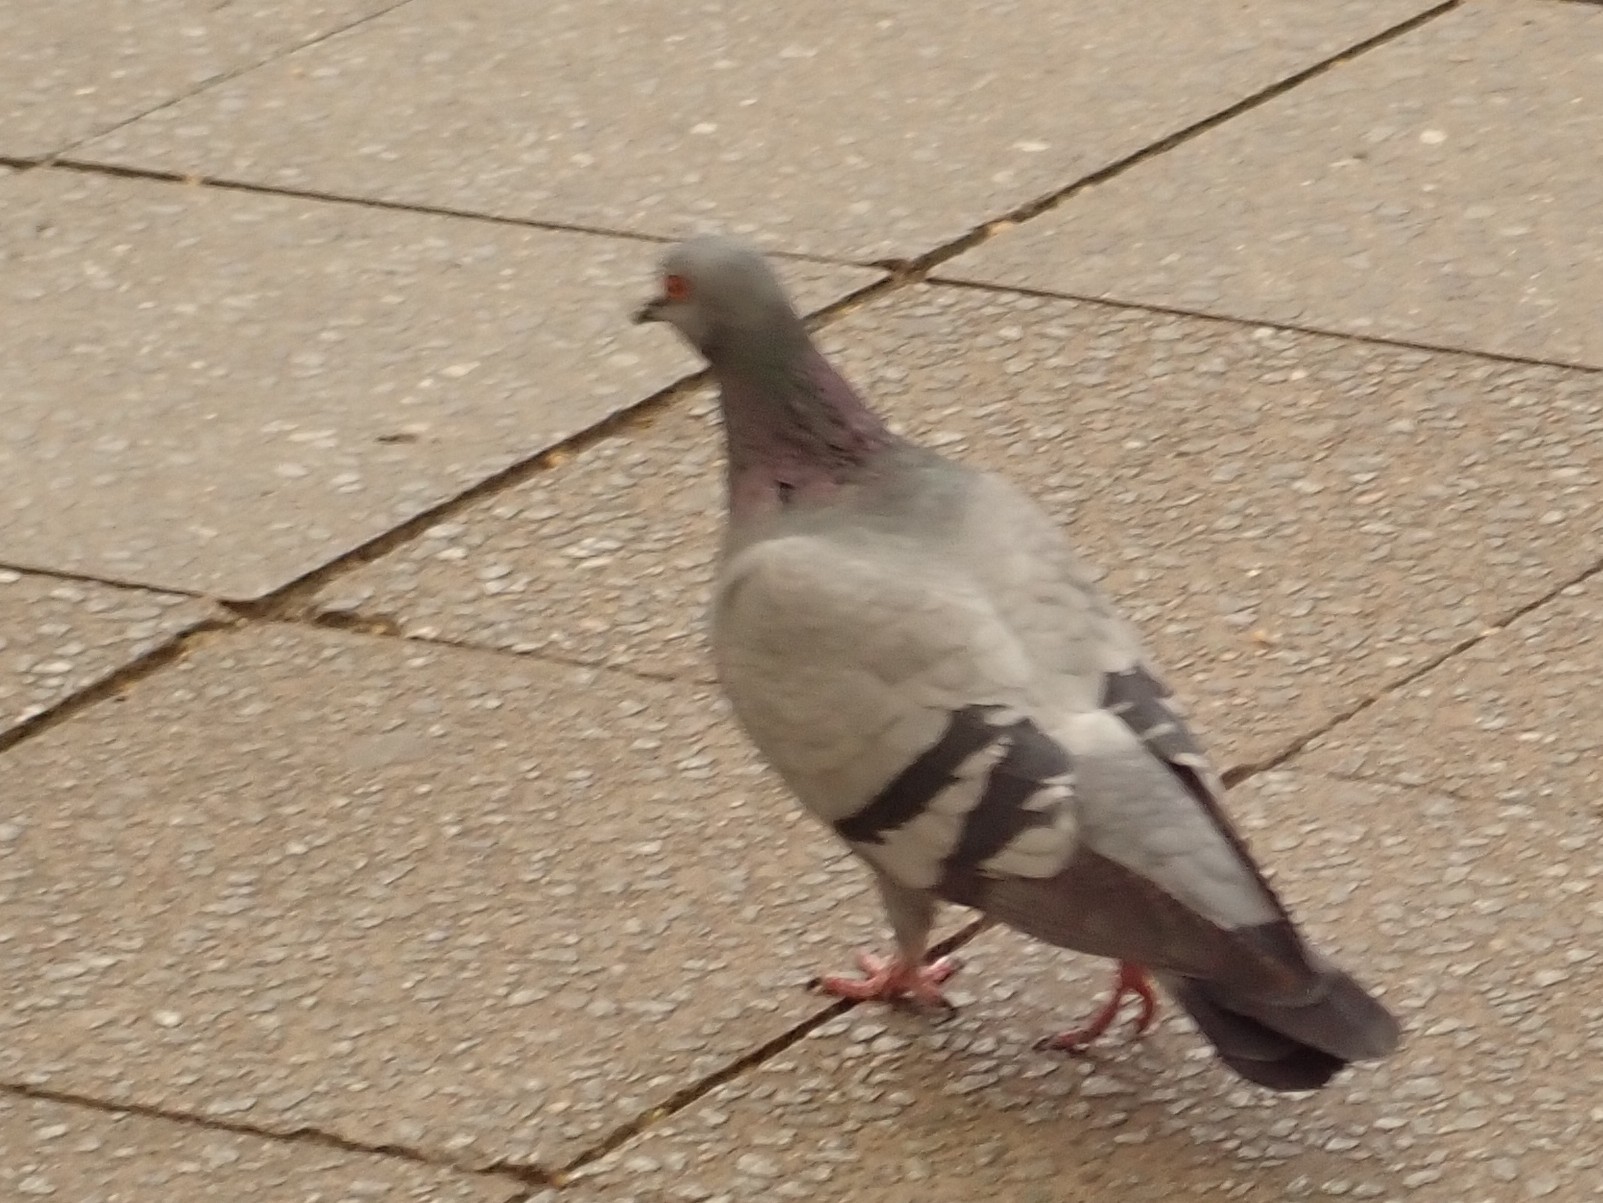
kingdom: Animalia
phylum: Chordata
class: Aves
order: Columbiformes
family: Columbidae
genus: Columba
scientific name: Columba livia
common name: Rock pigeon
